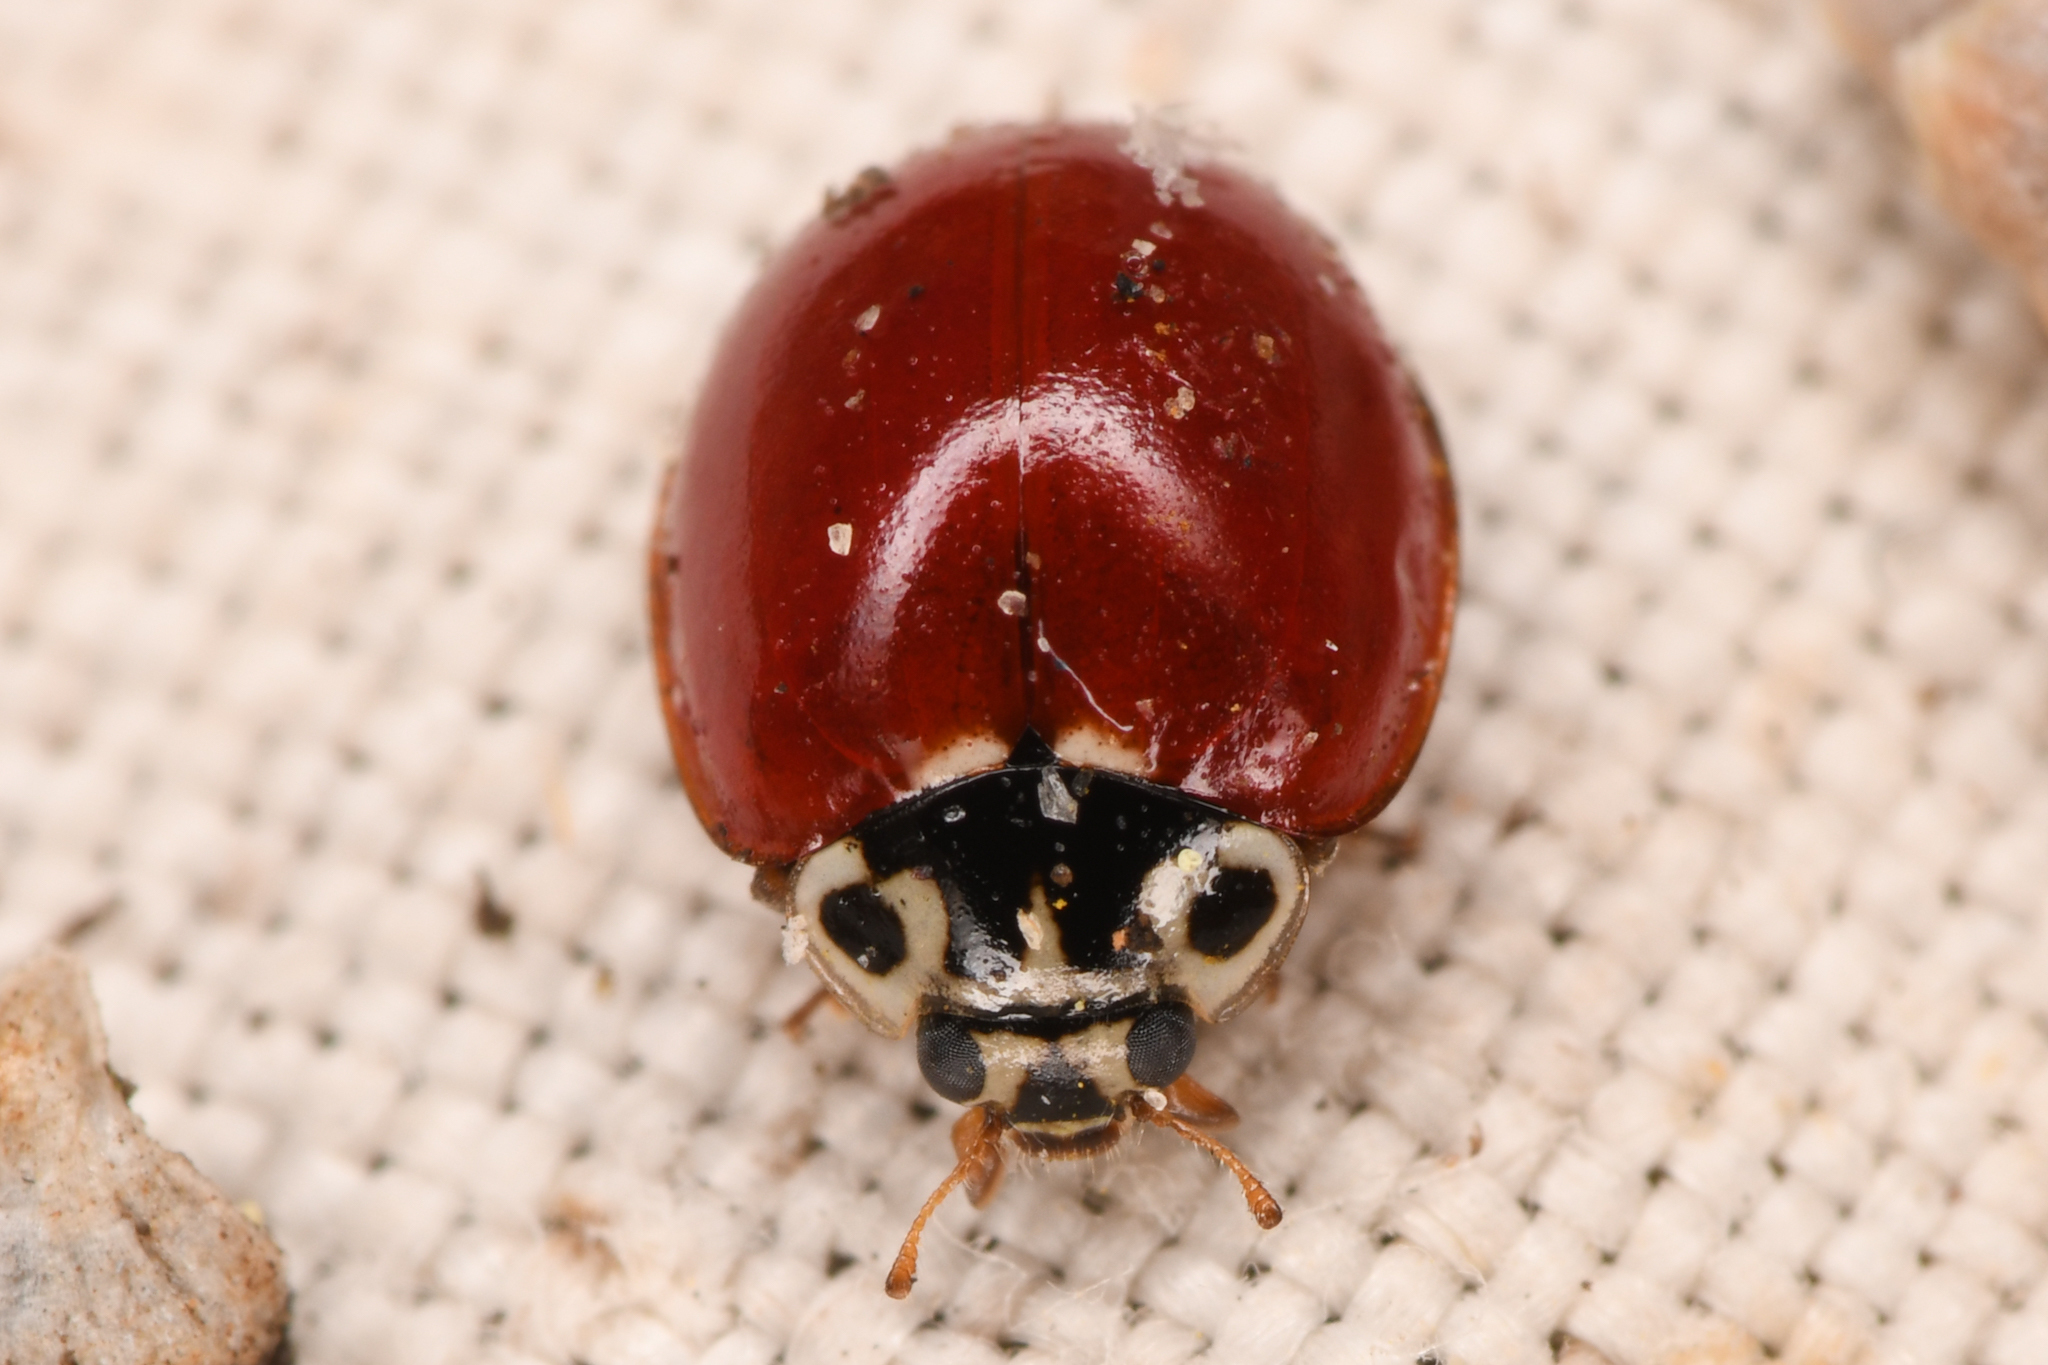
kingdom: Animalia
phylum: Arthropoda
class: Insecta
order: Coleoptera
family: Coccinellidae
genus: Cycloneda
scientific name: Cycloneda polita
